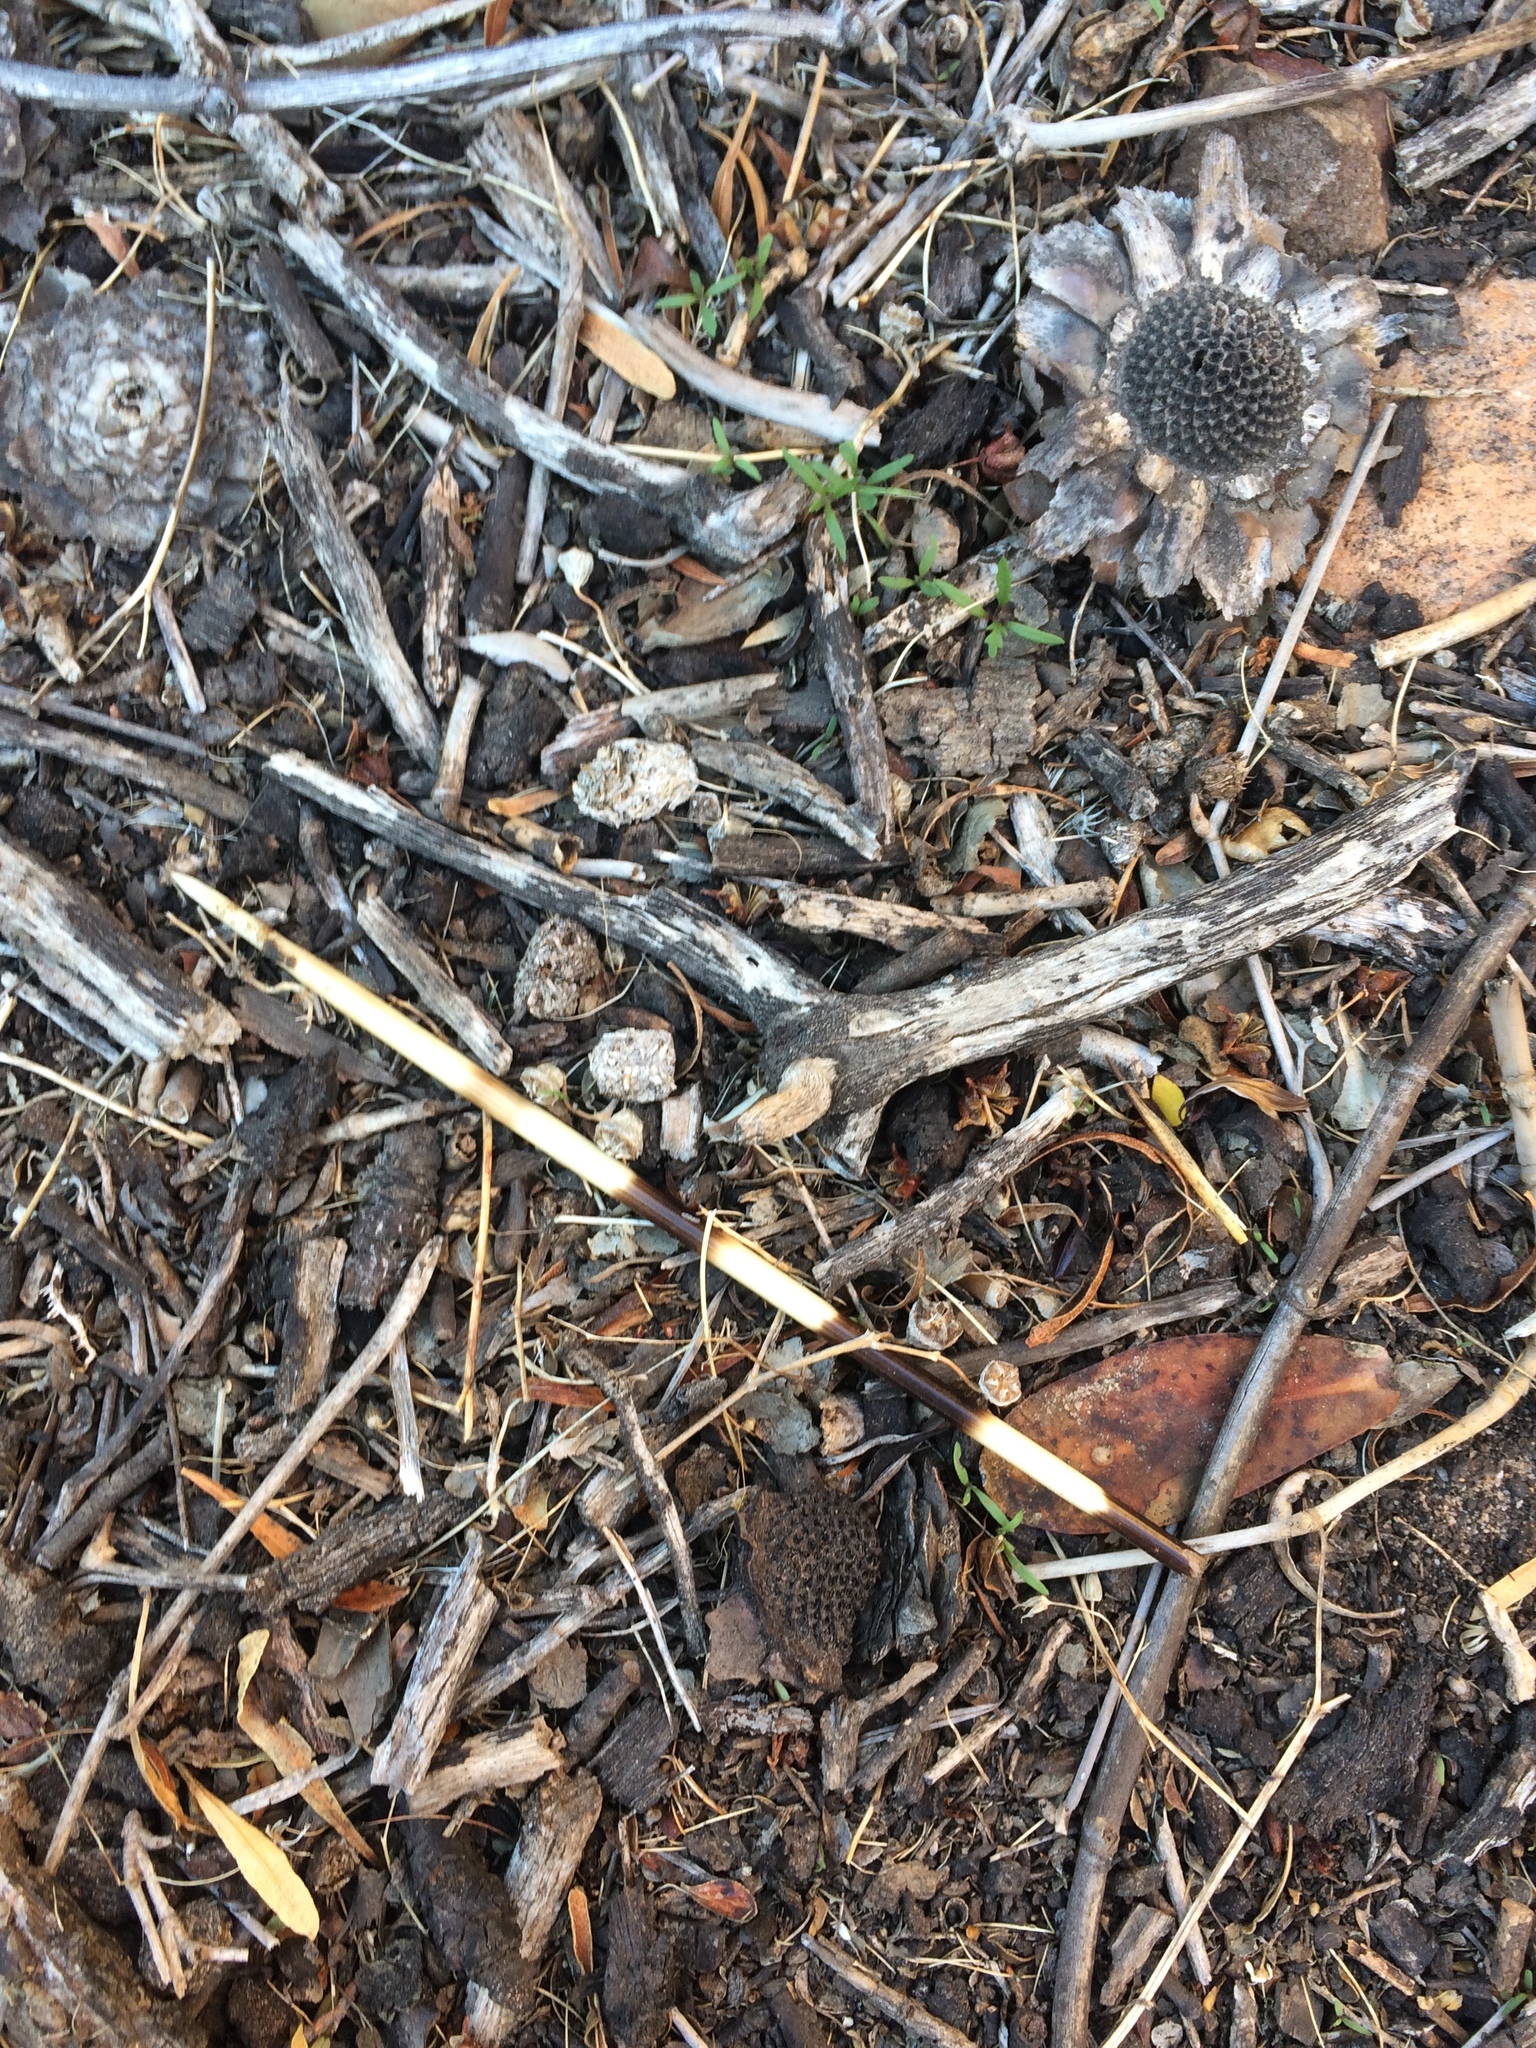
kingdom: Animalia
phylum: Chordata
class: Mammalia
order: Rodentia
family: Hystricidae
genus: Hystrix
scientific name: Hystrix africaeaustralis
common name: Cape porcupine
